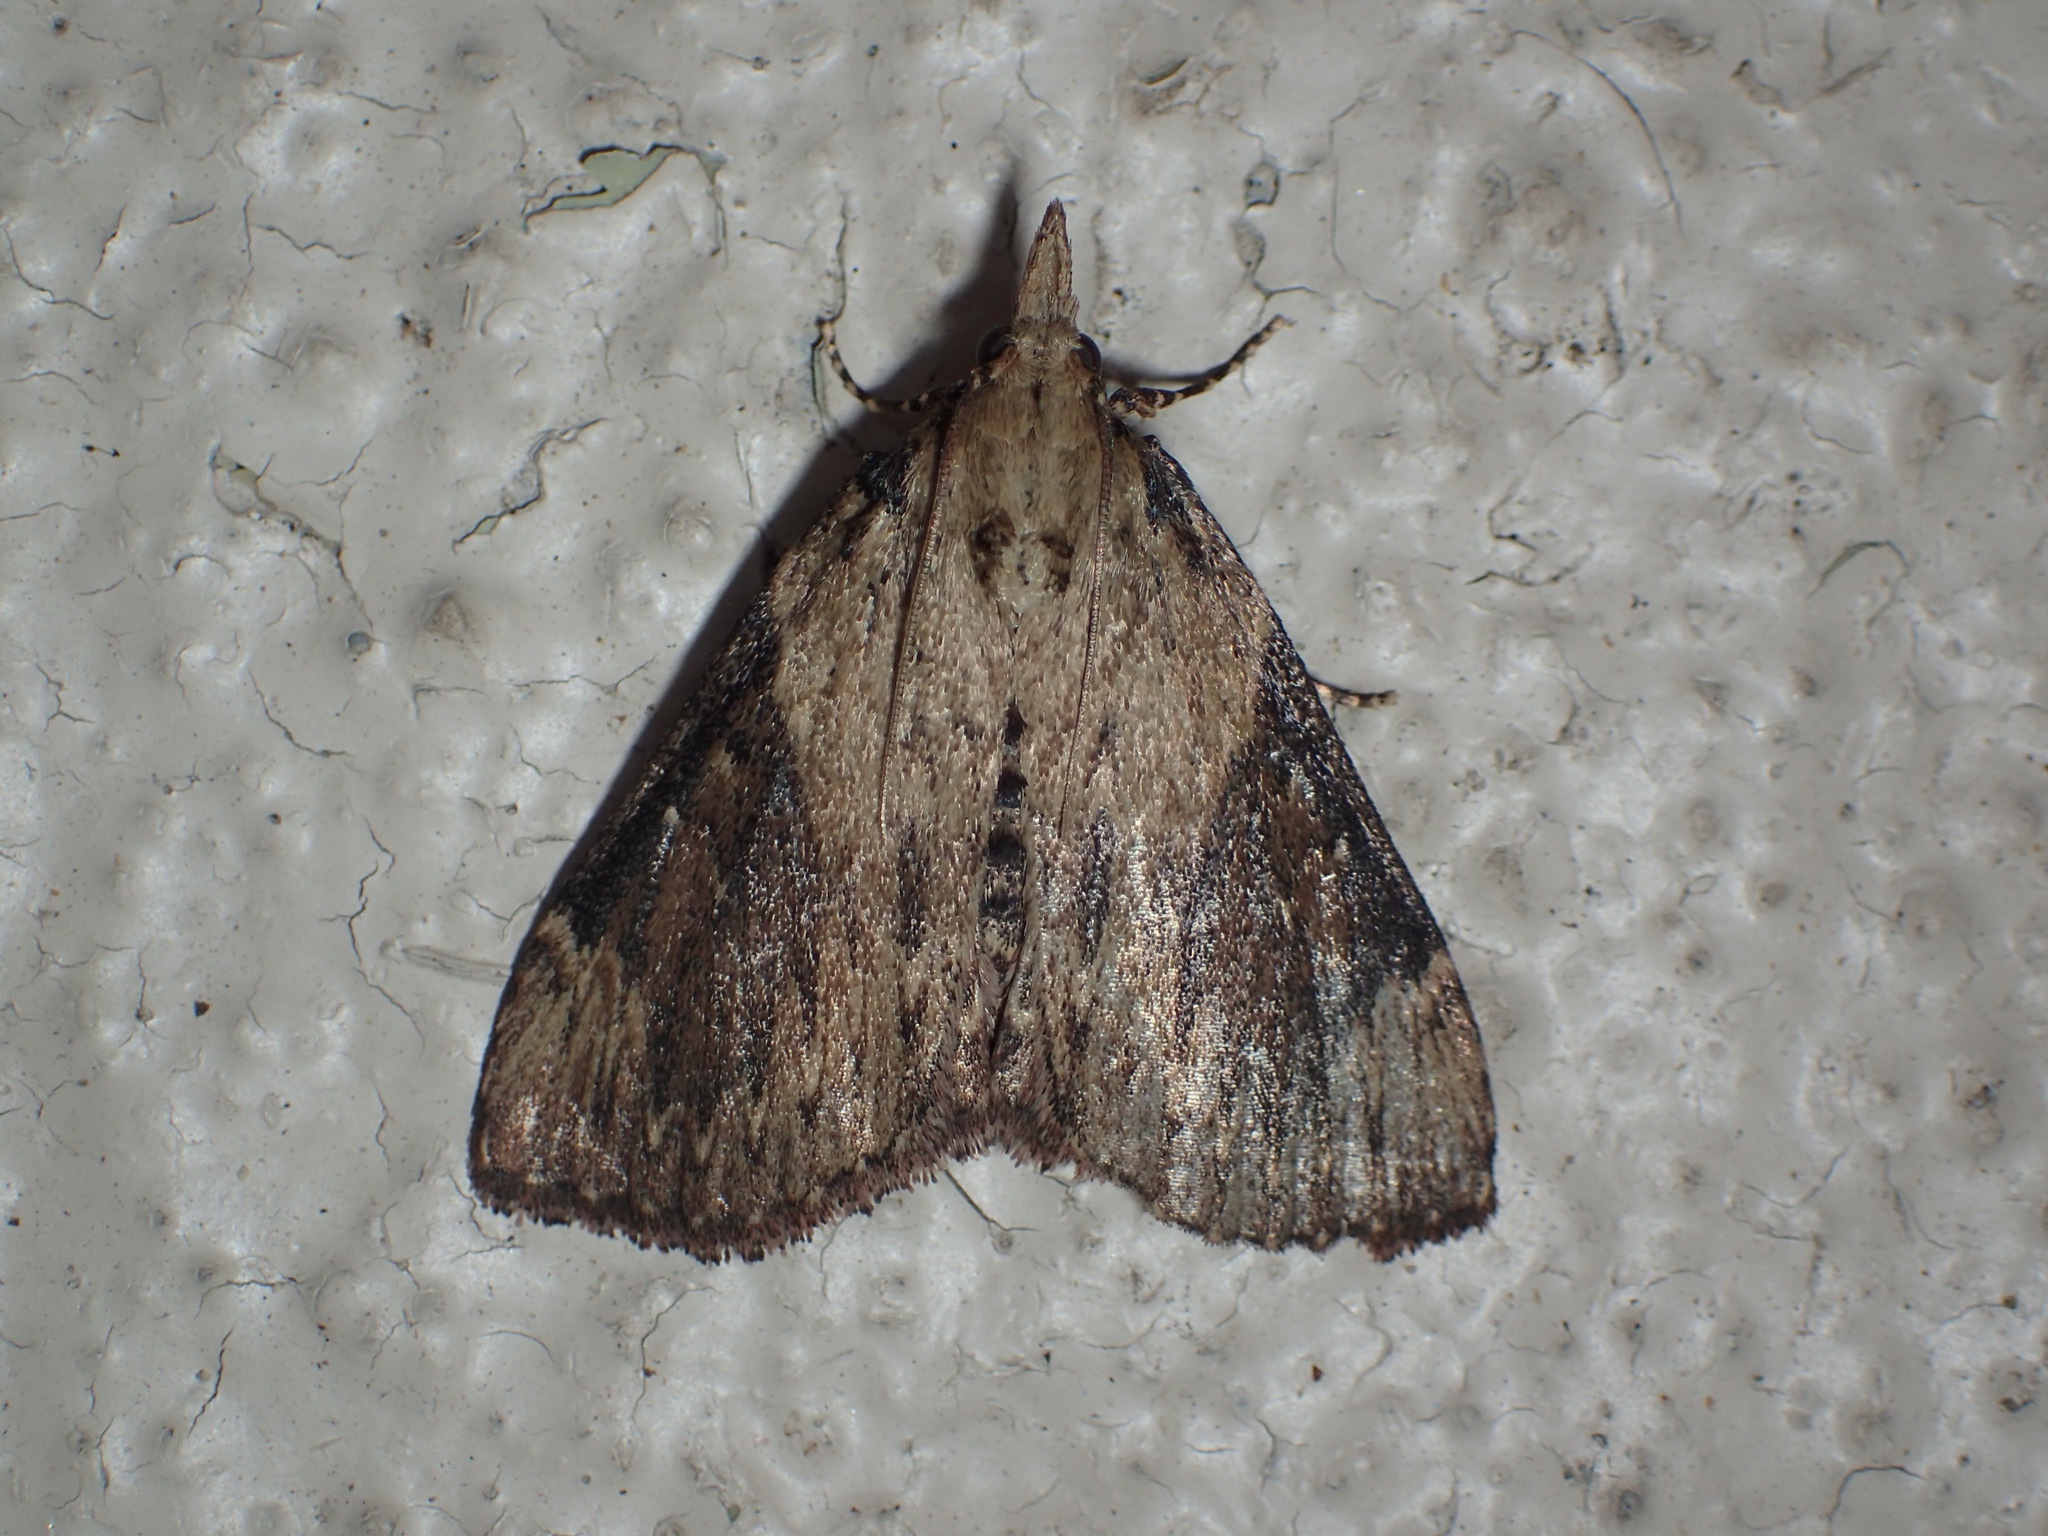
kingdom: Animalia
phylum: Arthropoda
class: Insecta
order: Lepidoptera
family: Pyralidae
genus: Omphalocera
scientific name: Omphalocera cariosa
